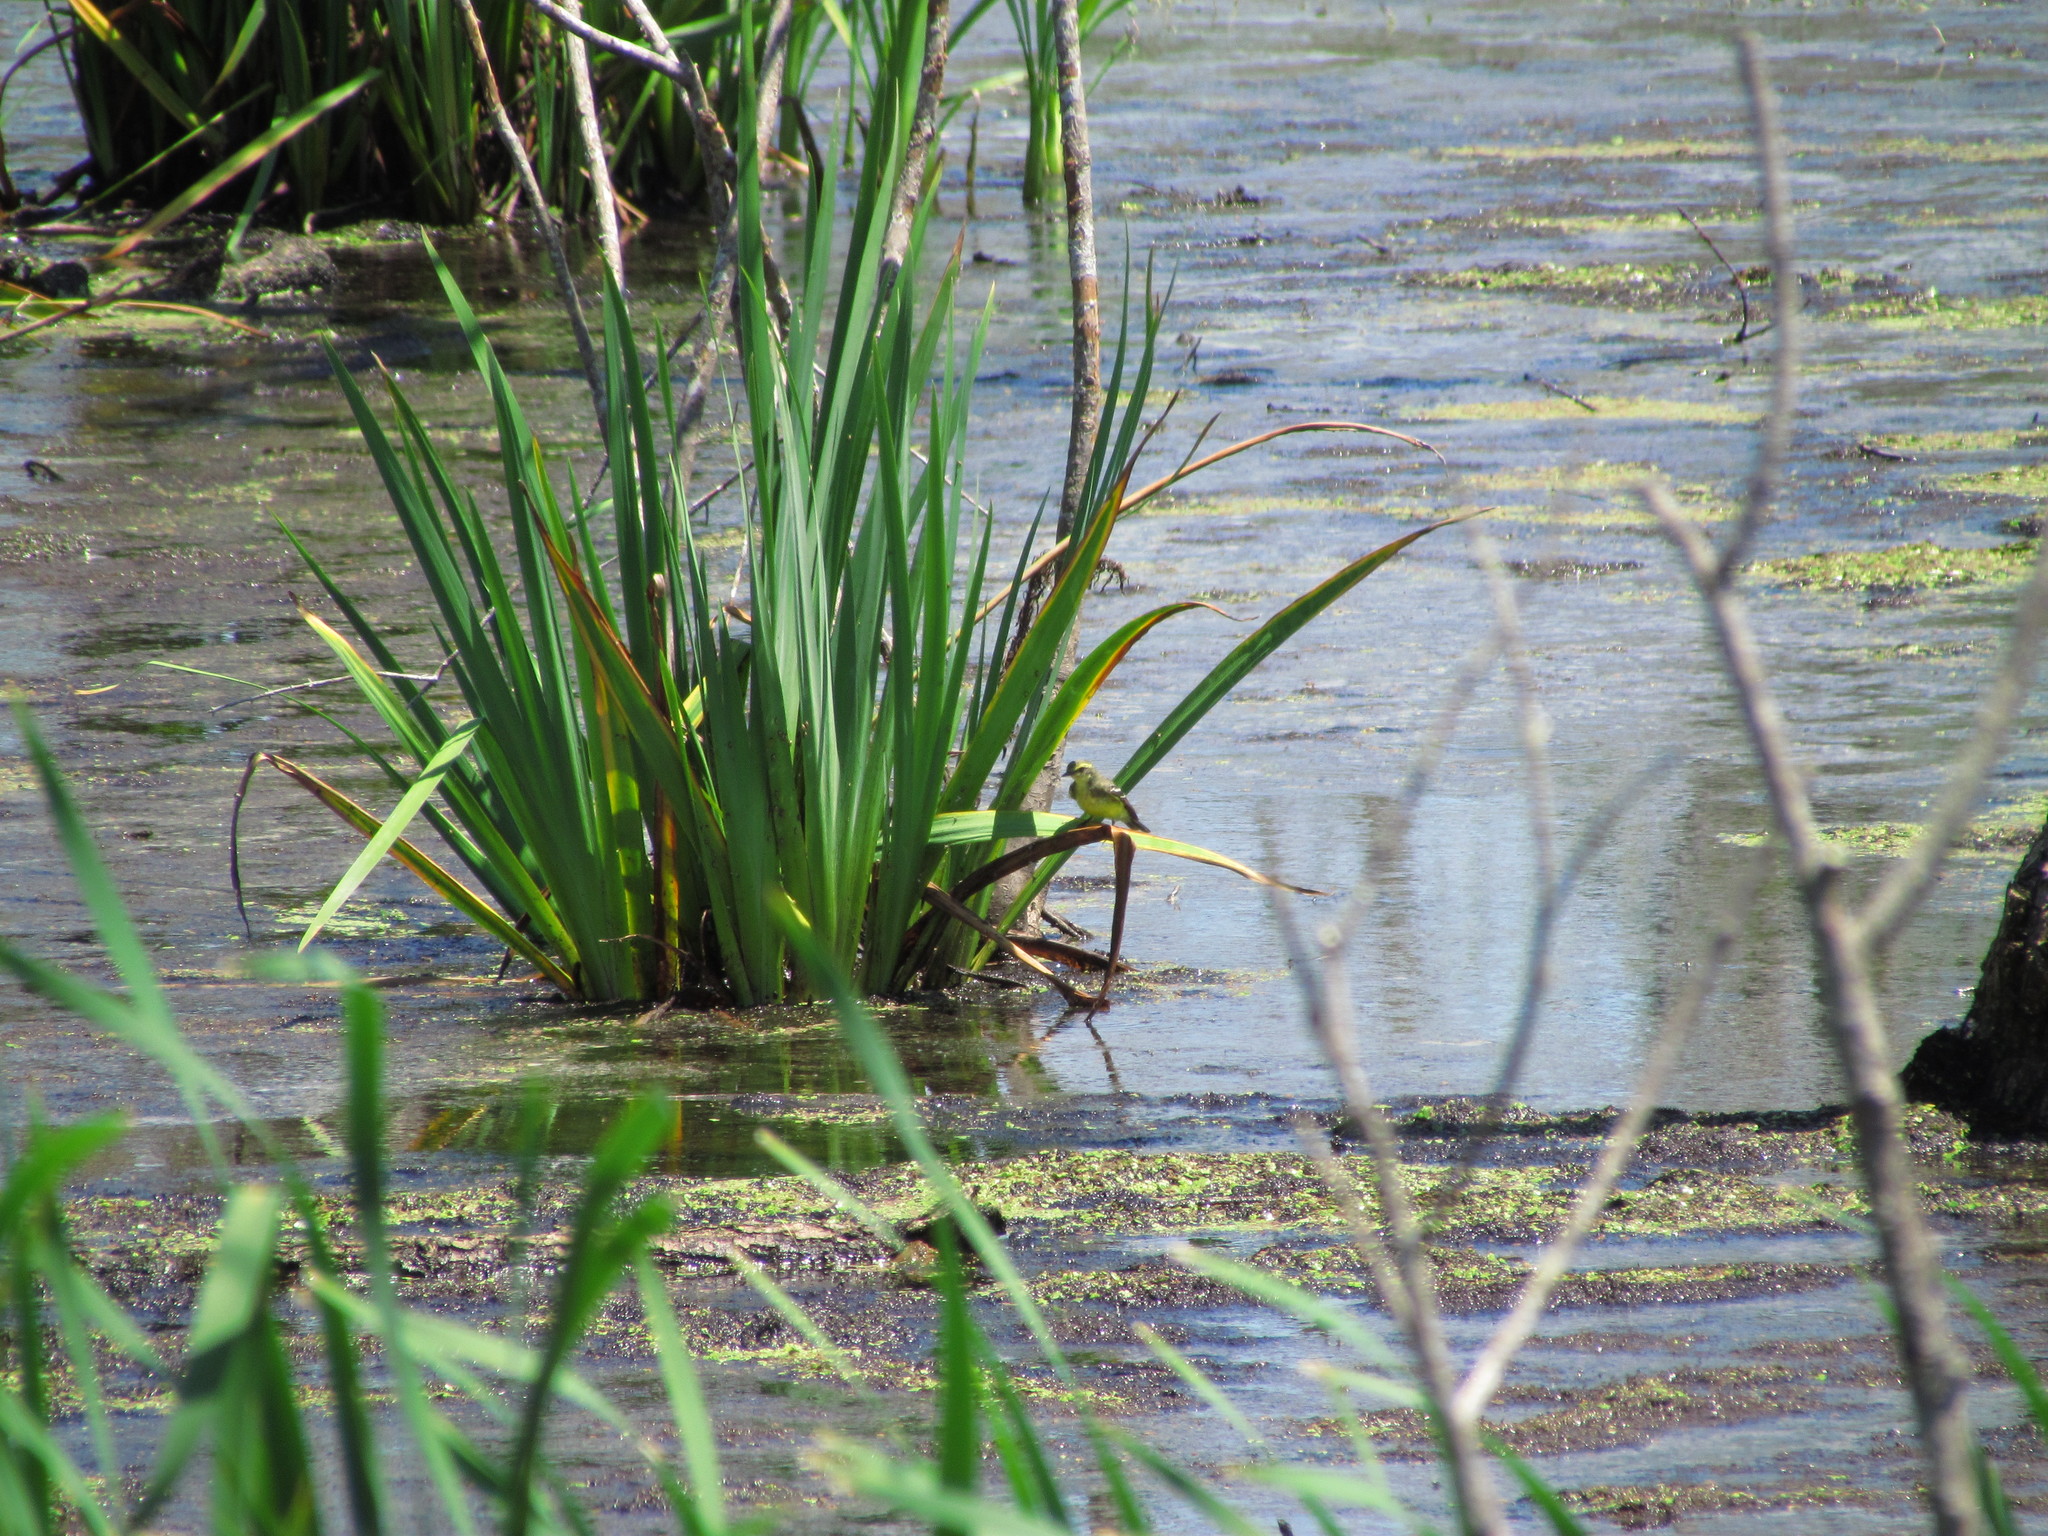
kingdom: Animalia
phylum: Chordata
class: Aves
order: Passeriformes
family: Tyrannidae
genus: Satrapa
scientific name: Satrapa icterophrys
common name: Yellow-browed tyrant
